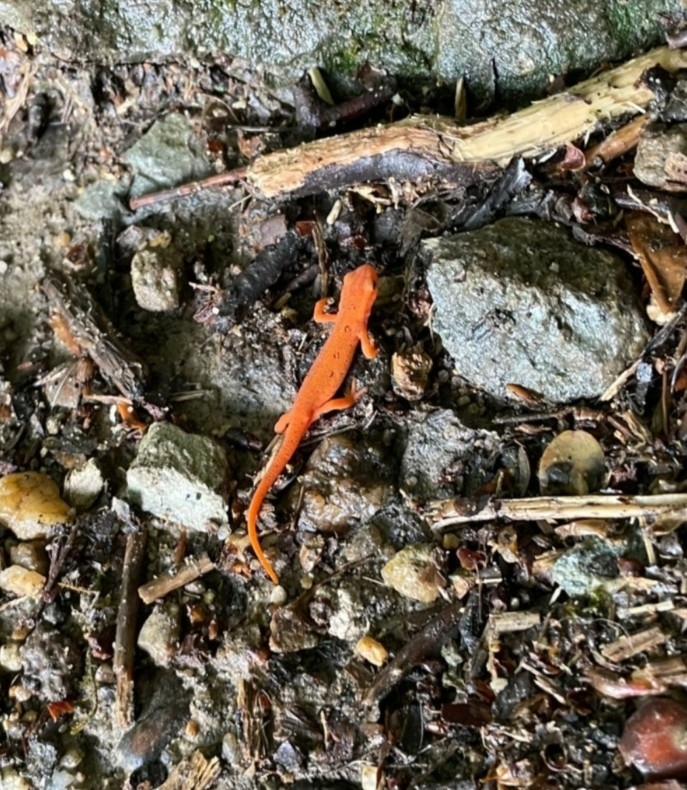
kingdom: Animalia
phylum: Chordata
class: Amphibia
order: Caudata
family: Salamandridae
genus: Notophthalmus
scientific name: Notophthalmus viridescens
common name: Eastern newt
